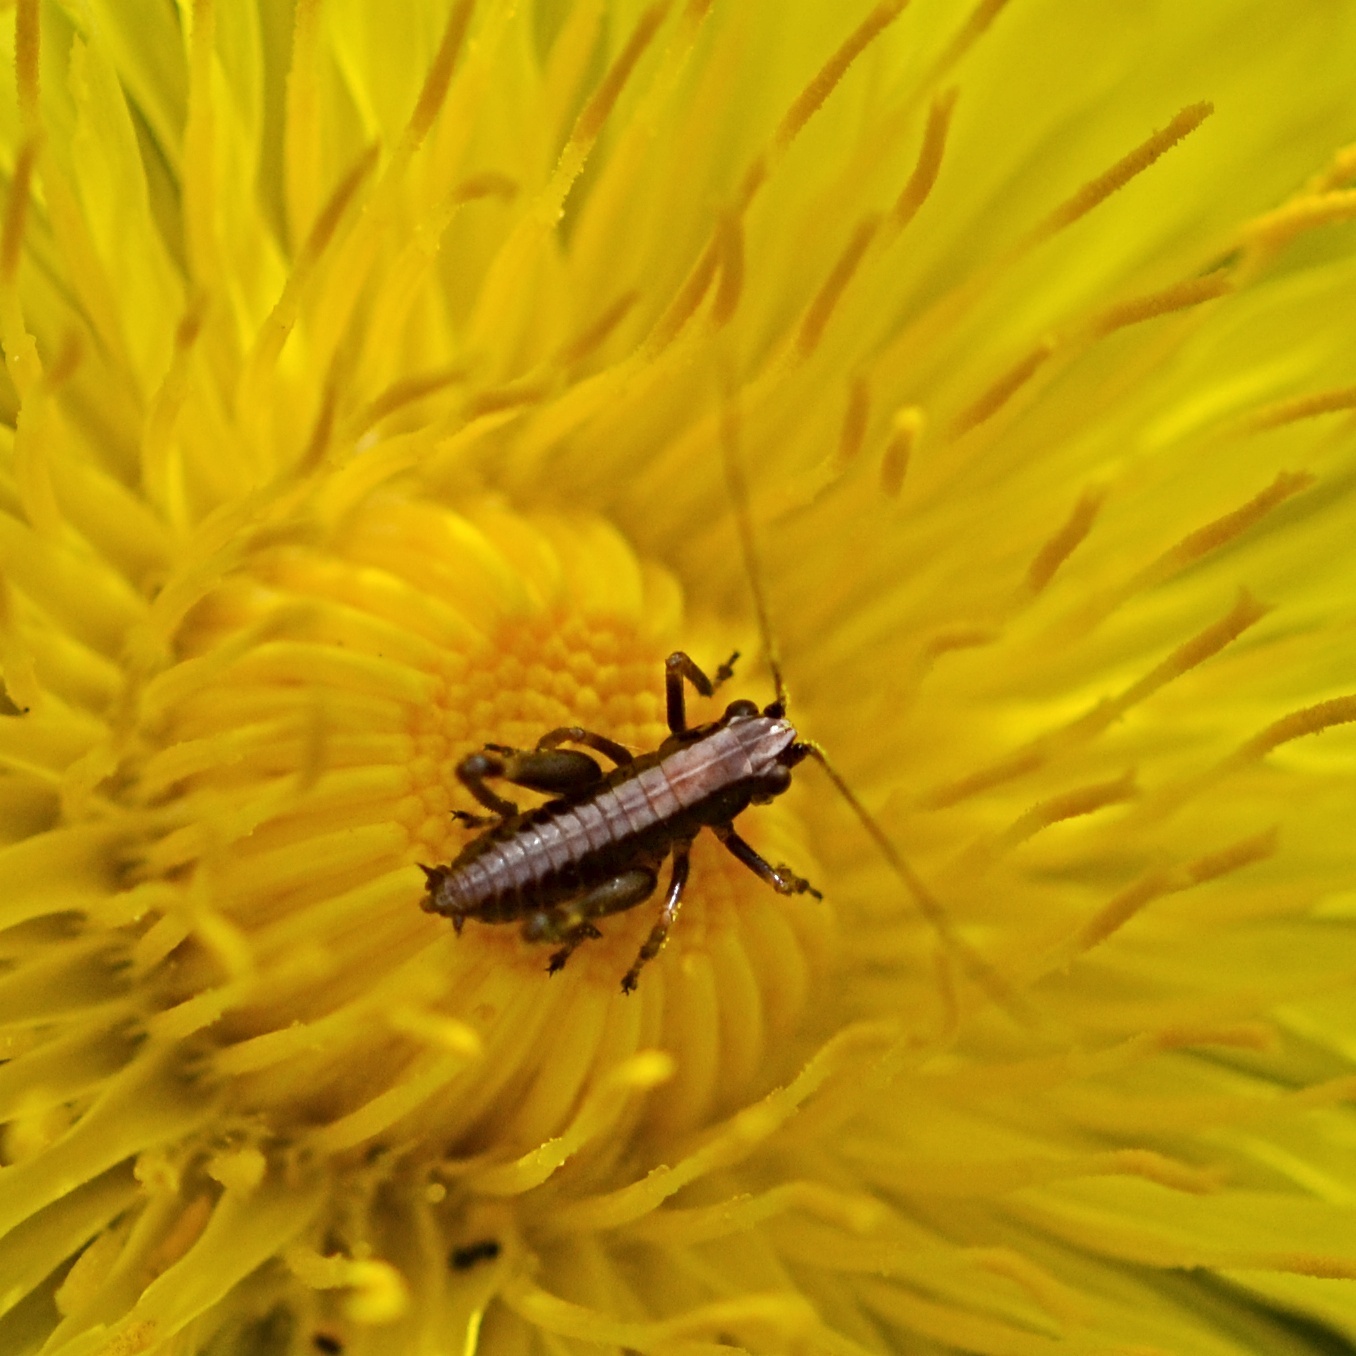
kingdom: Animalia
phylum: Arthropoda
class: Insecta
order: Orthoptera
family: Tettigoniidae
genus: Pholidoptera
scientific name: Pholidoptera griseoaptera
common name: Dark bush-cricket
